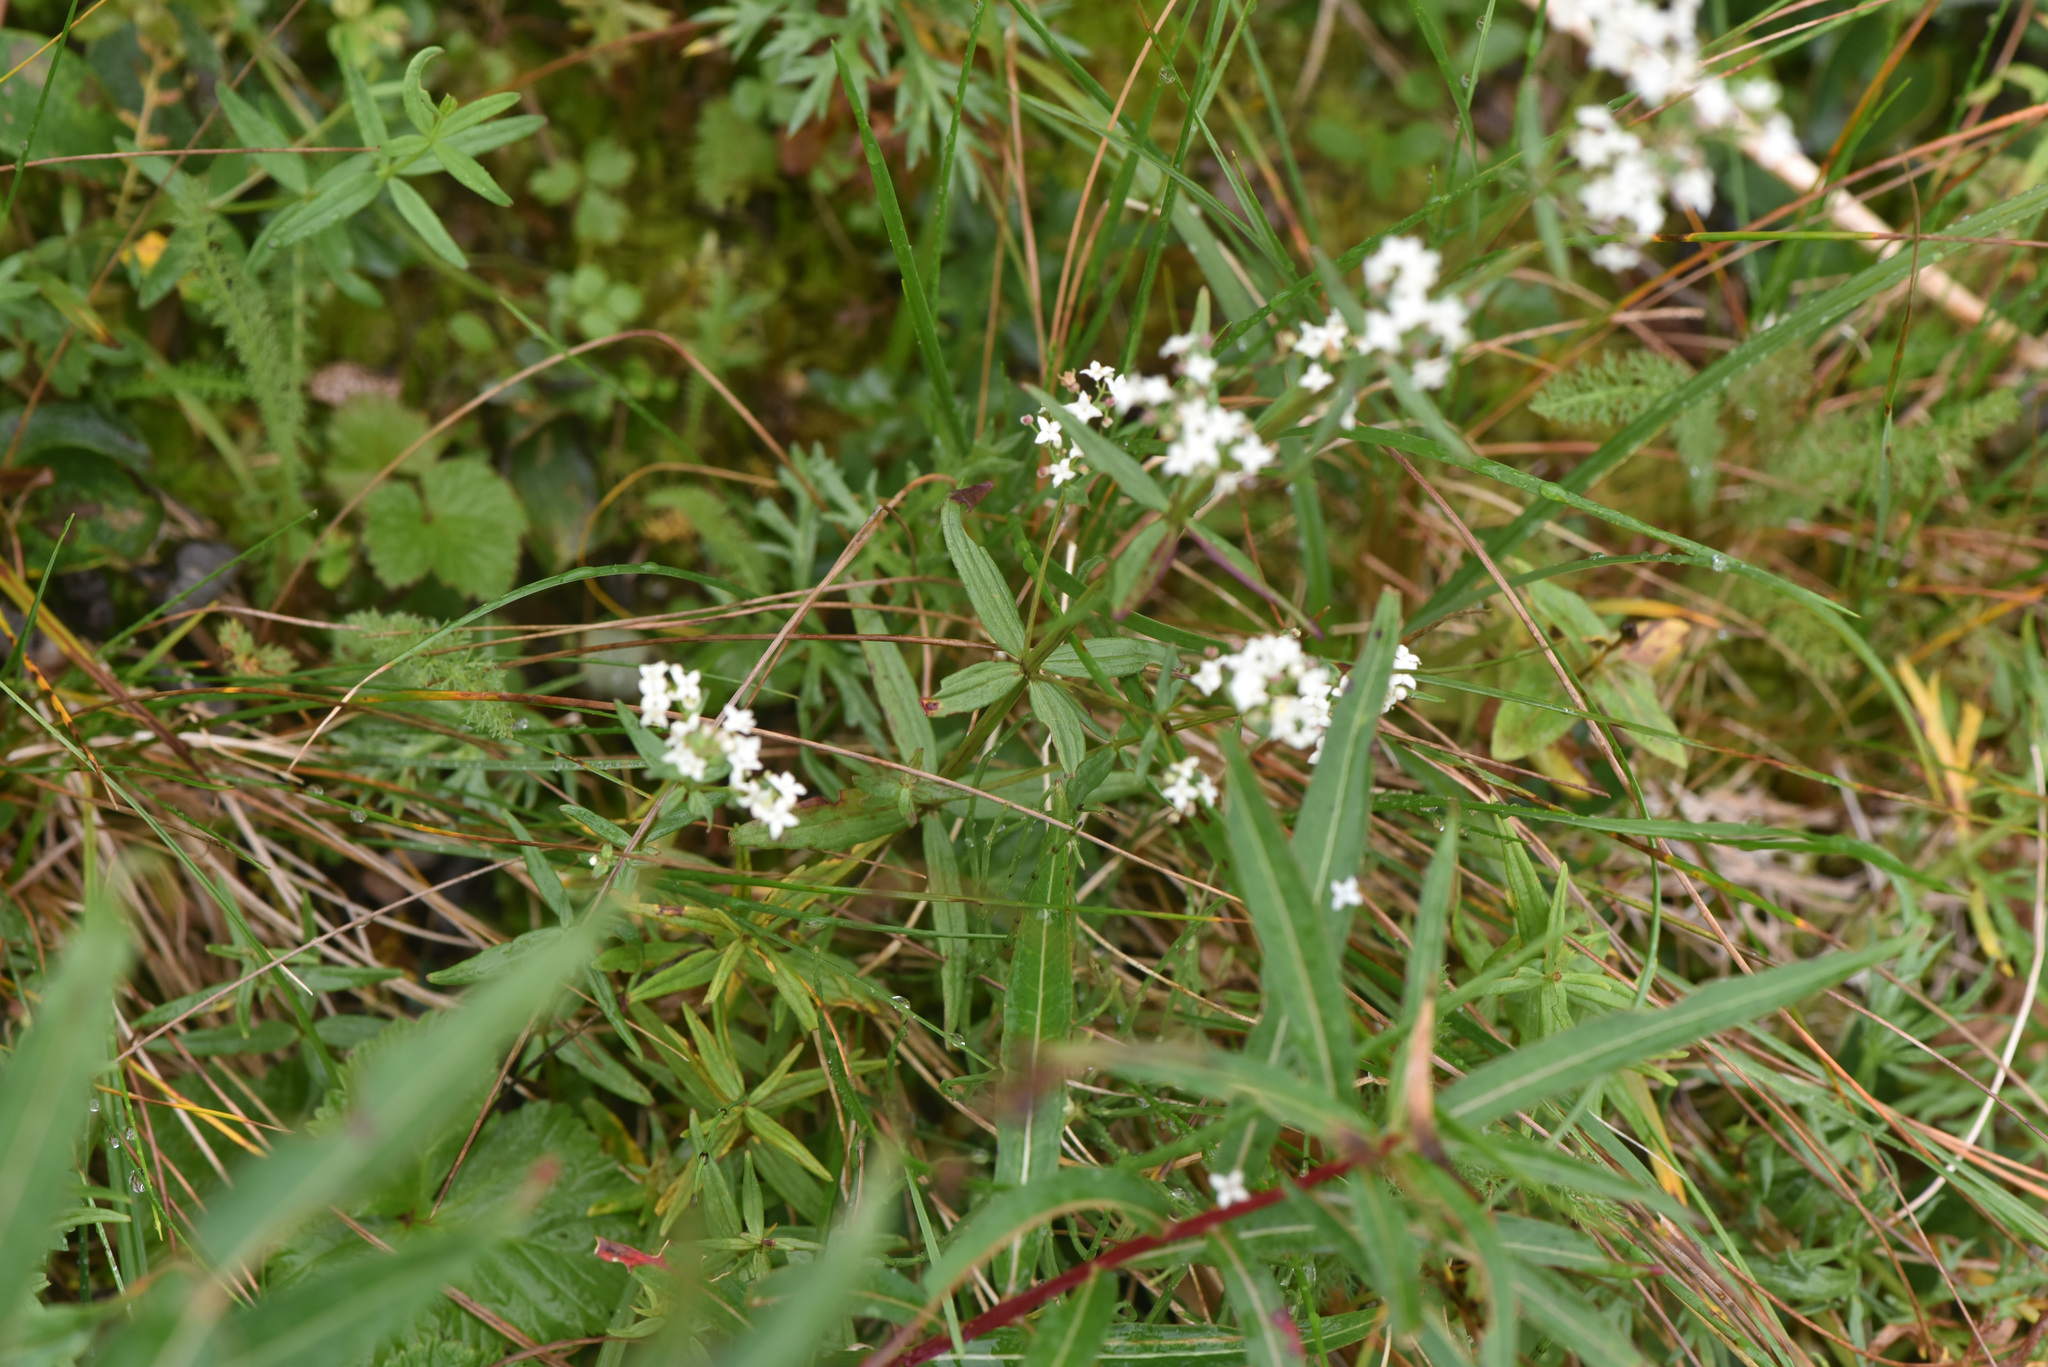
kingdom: Plantae
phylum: Tracheophyta
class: Magnoliopsida
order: Gentianales
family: Rubiaceae
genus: Galium
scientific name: Galium boreale
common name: Northern bedstraw
